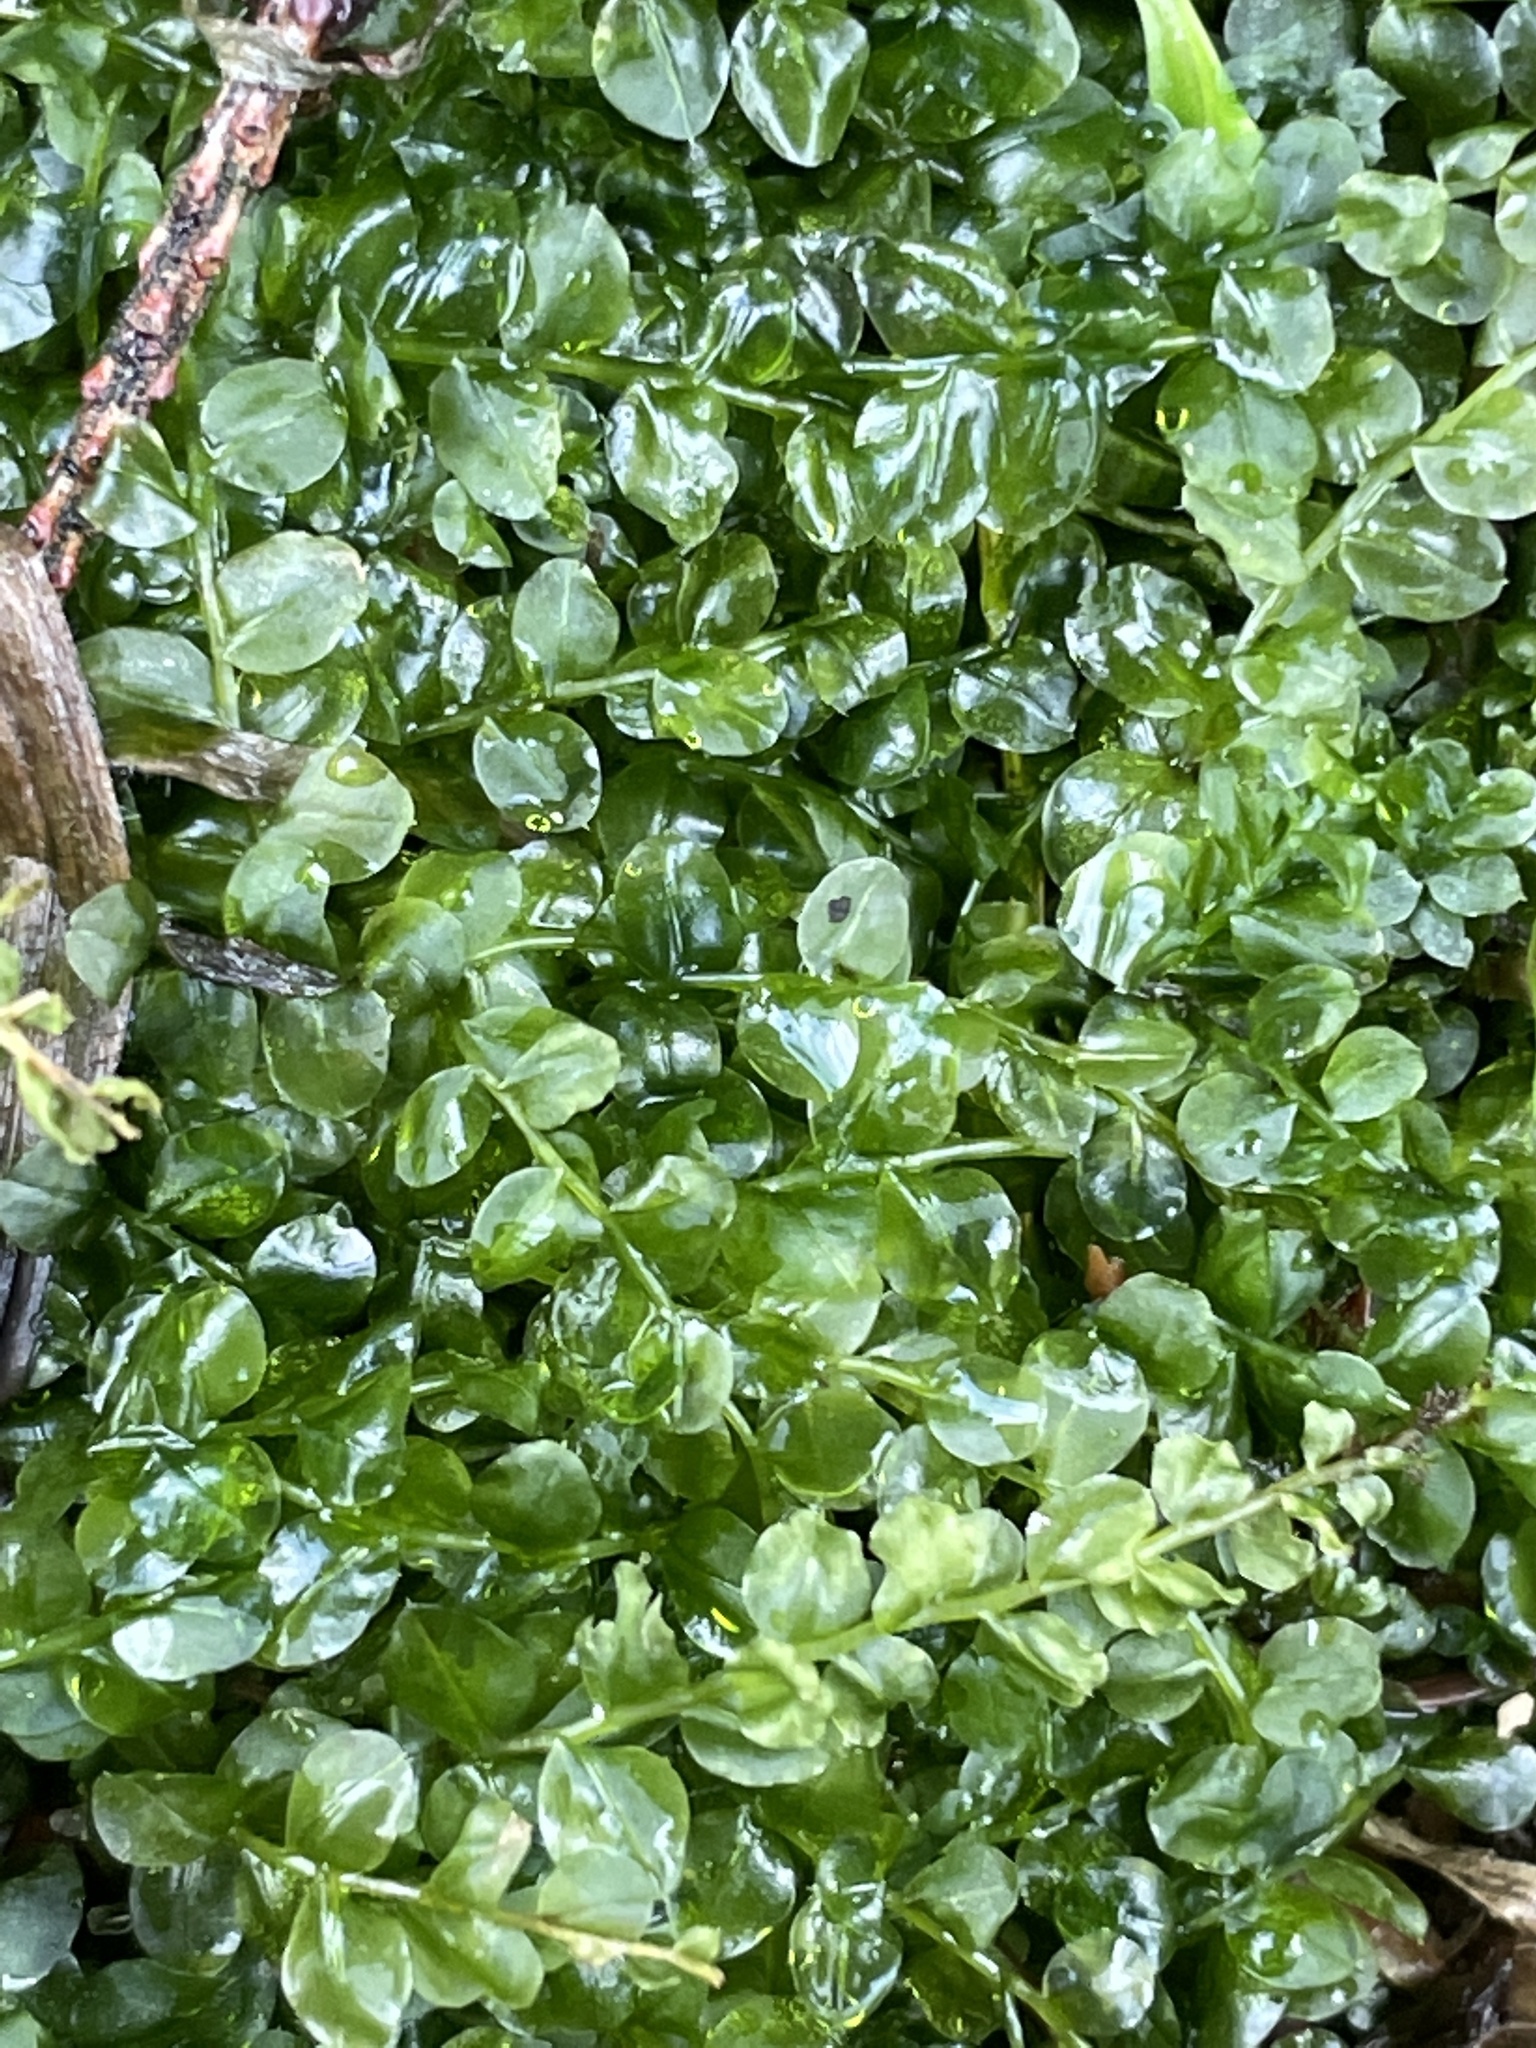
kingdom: Plantae
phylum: Bryophyta
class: Bryopsida
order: Bryales
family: Mniaceae
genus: Plagiomnium
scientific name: Plagiomnium affine
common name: Many-fruited thyme-moss
